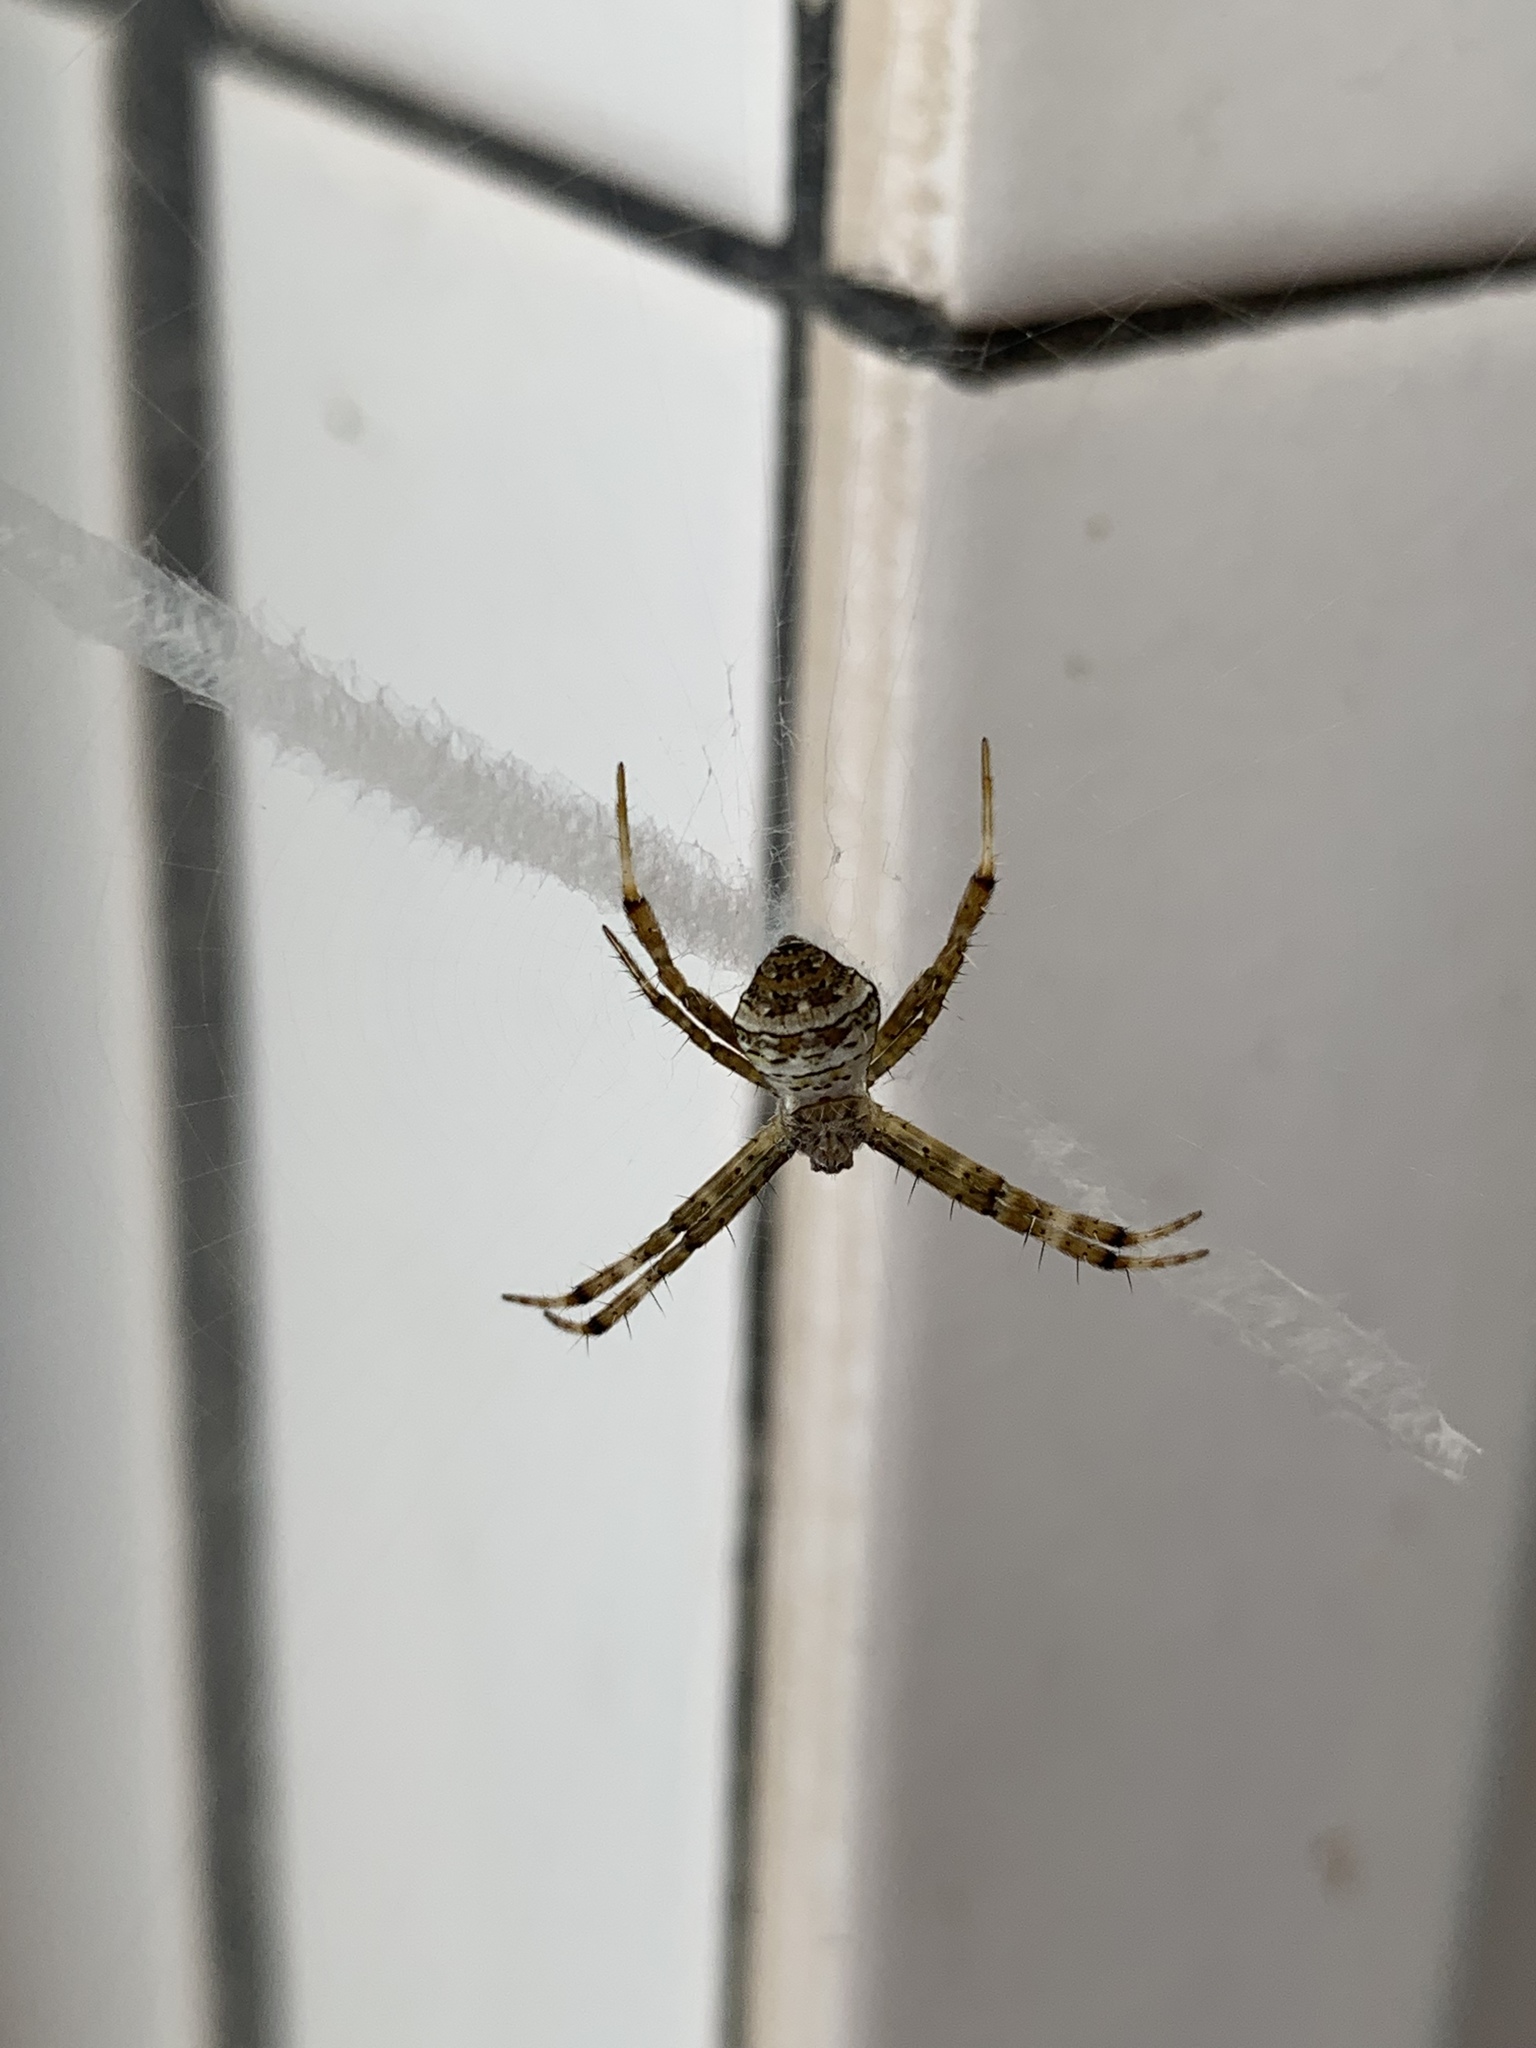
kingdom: Animalia
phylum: Arthropoda
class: Arachnida
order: Araneae
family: Araneidae
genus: Argiope
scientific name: Argiope aetheroides
